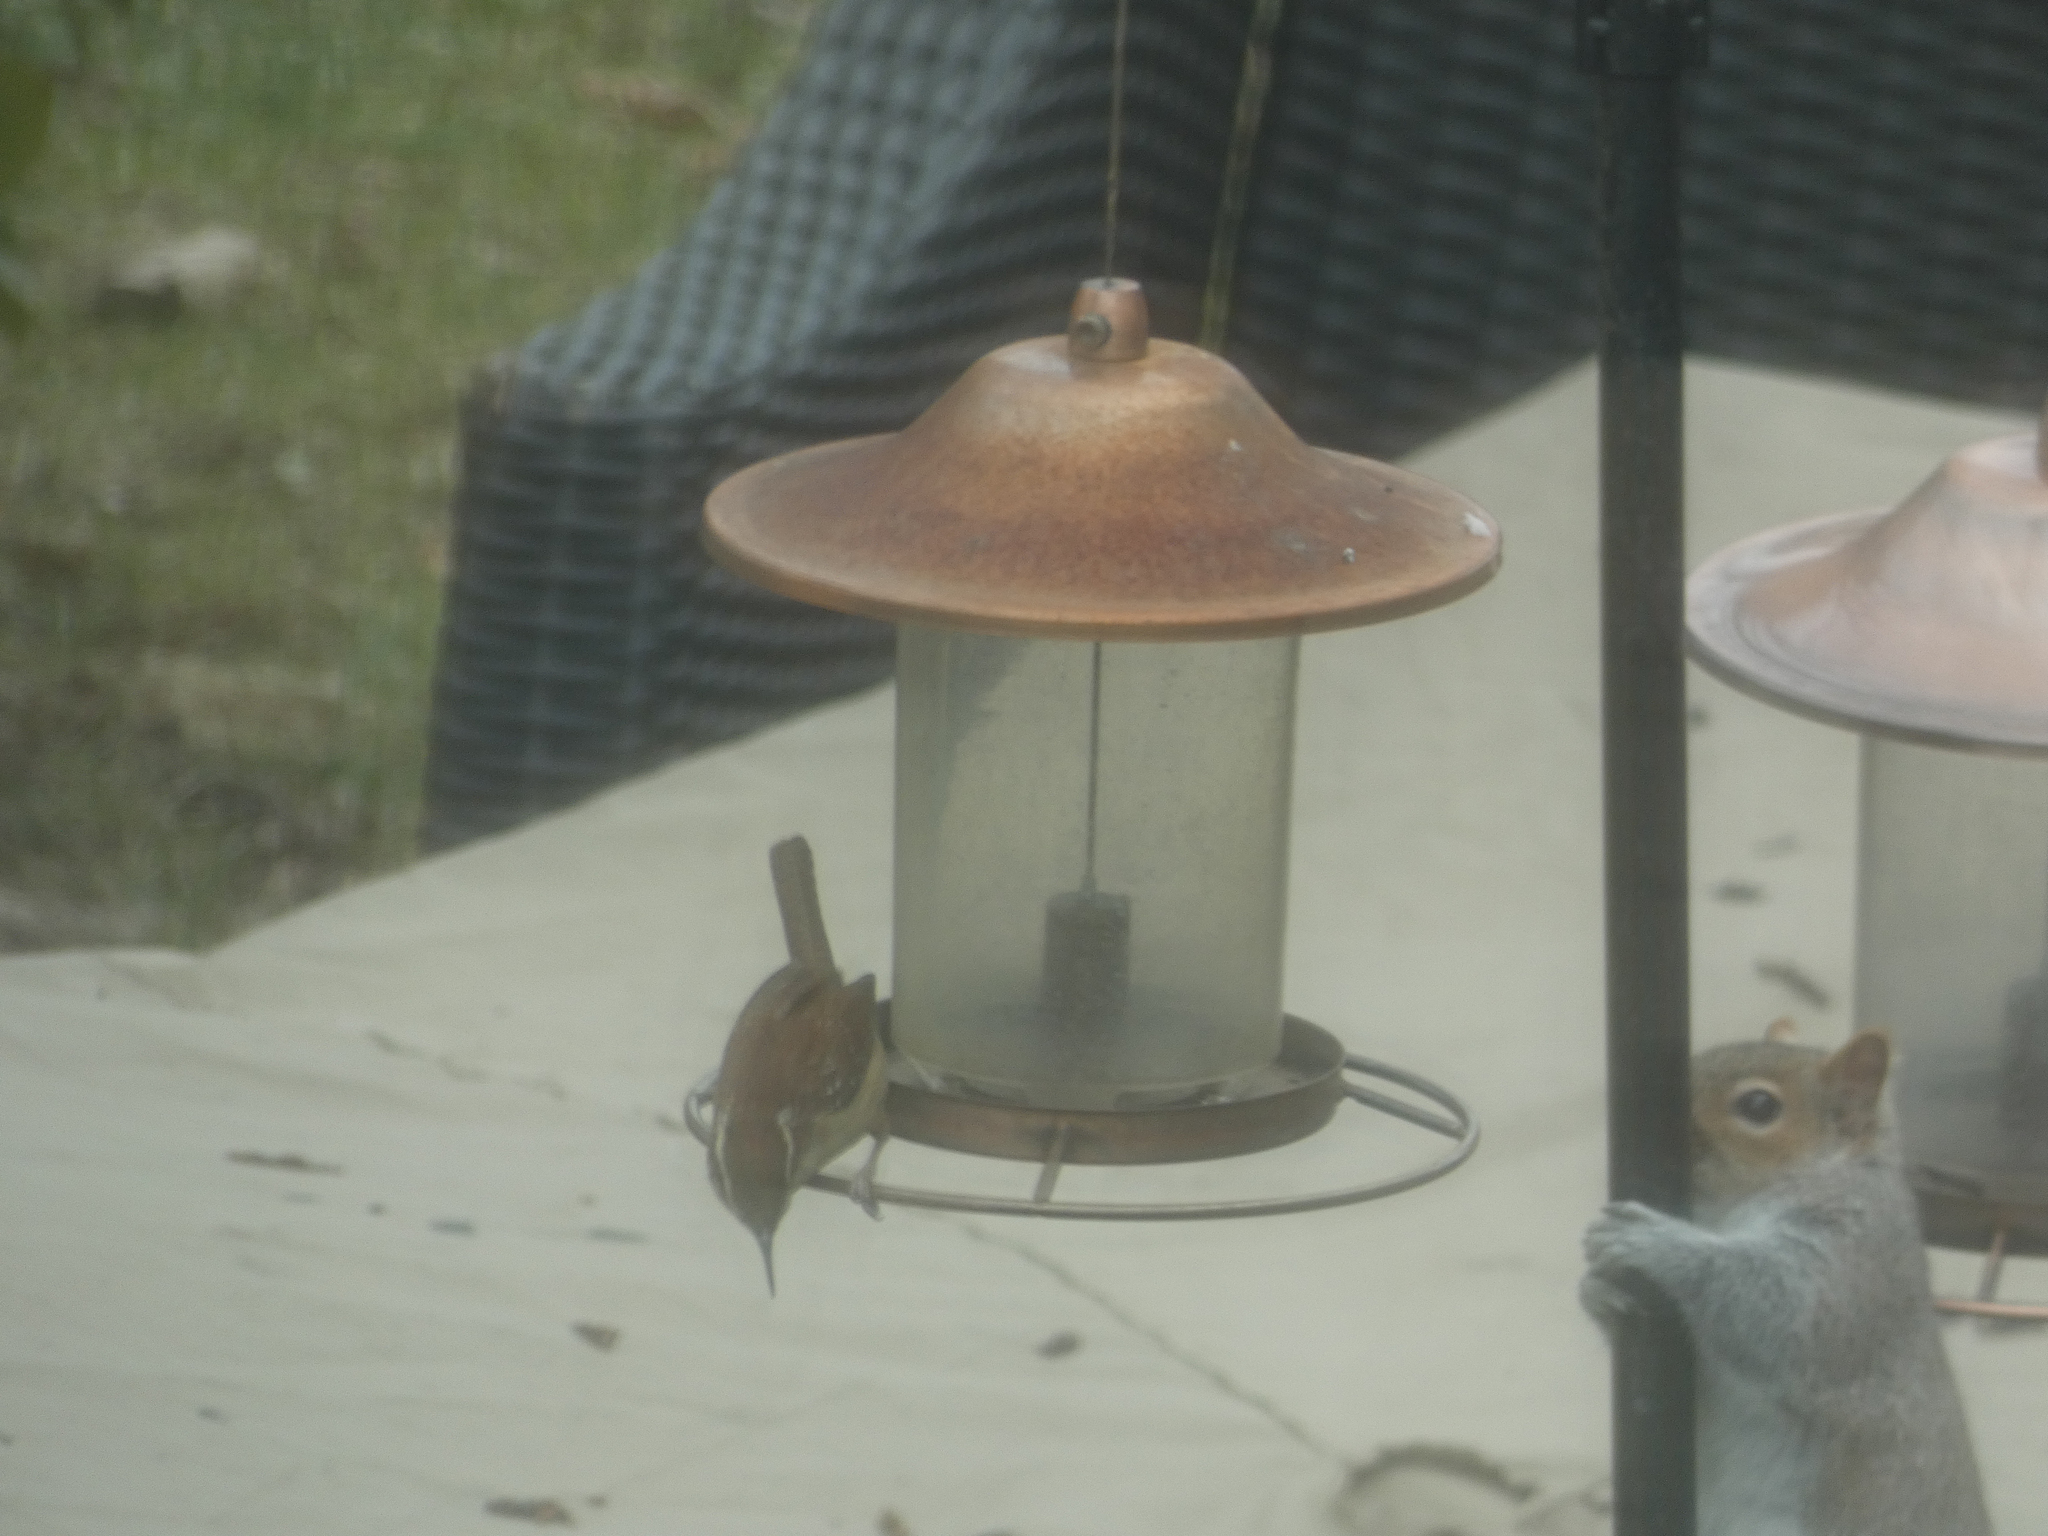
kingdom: Animalia
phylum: Chordata
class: Aves
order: Passeriformes
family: Troglodytidae
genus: Thryothorus
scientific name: Thryothorus ludovicianus
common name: Carolina wren
